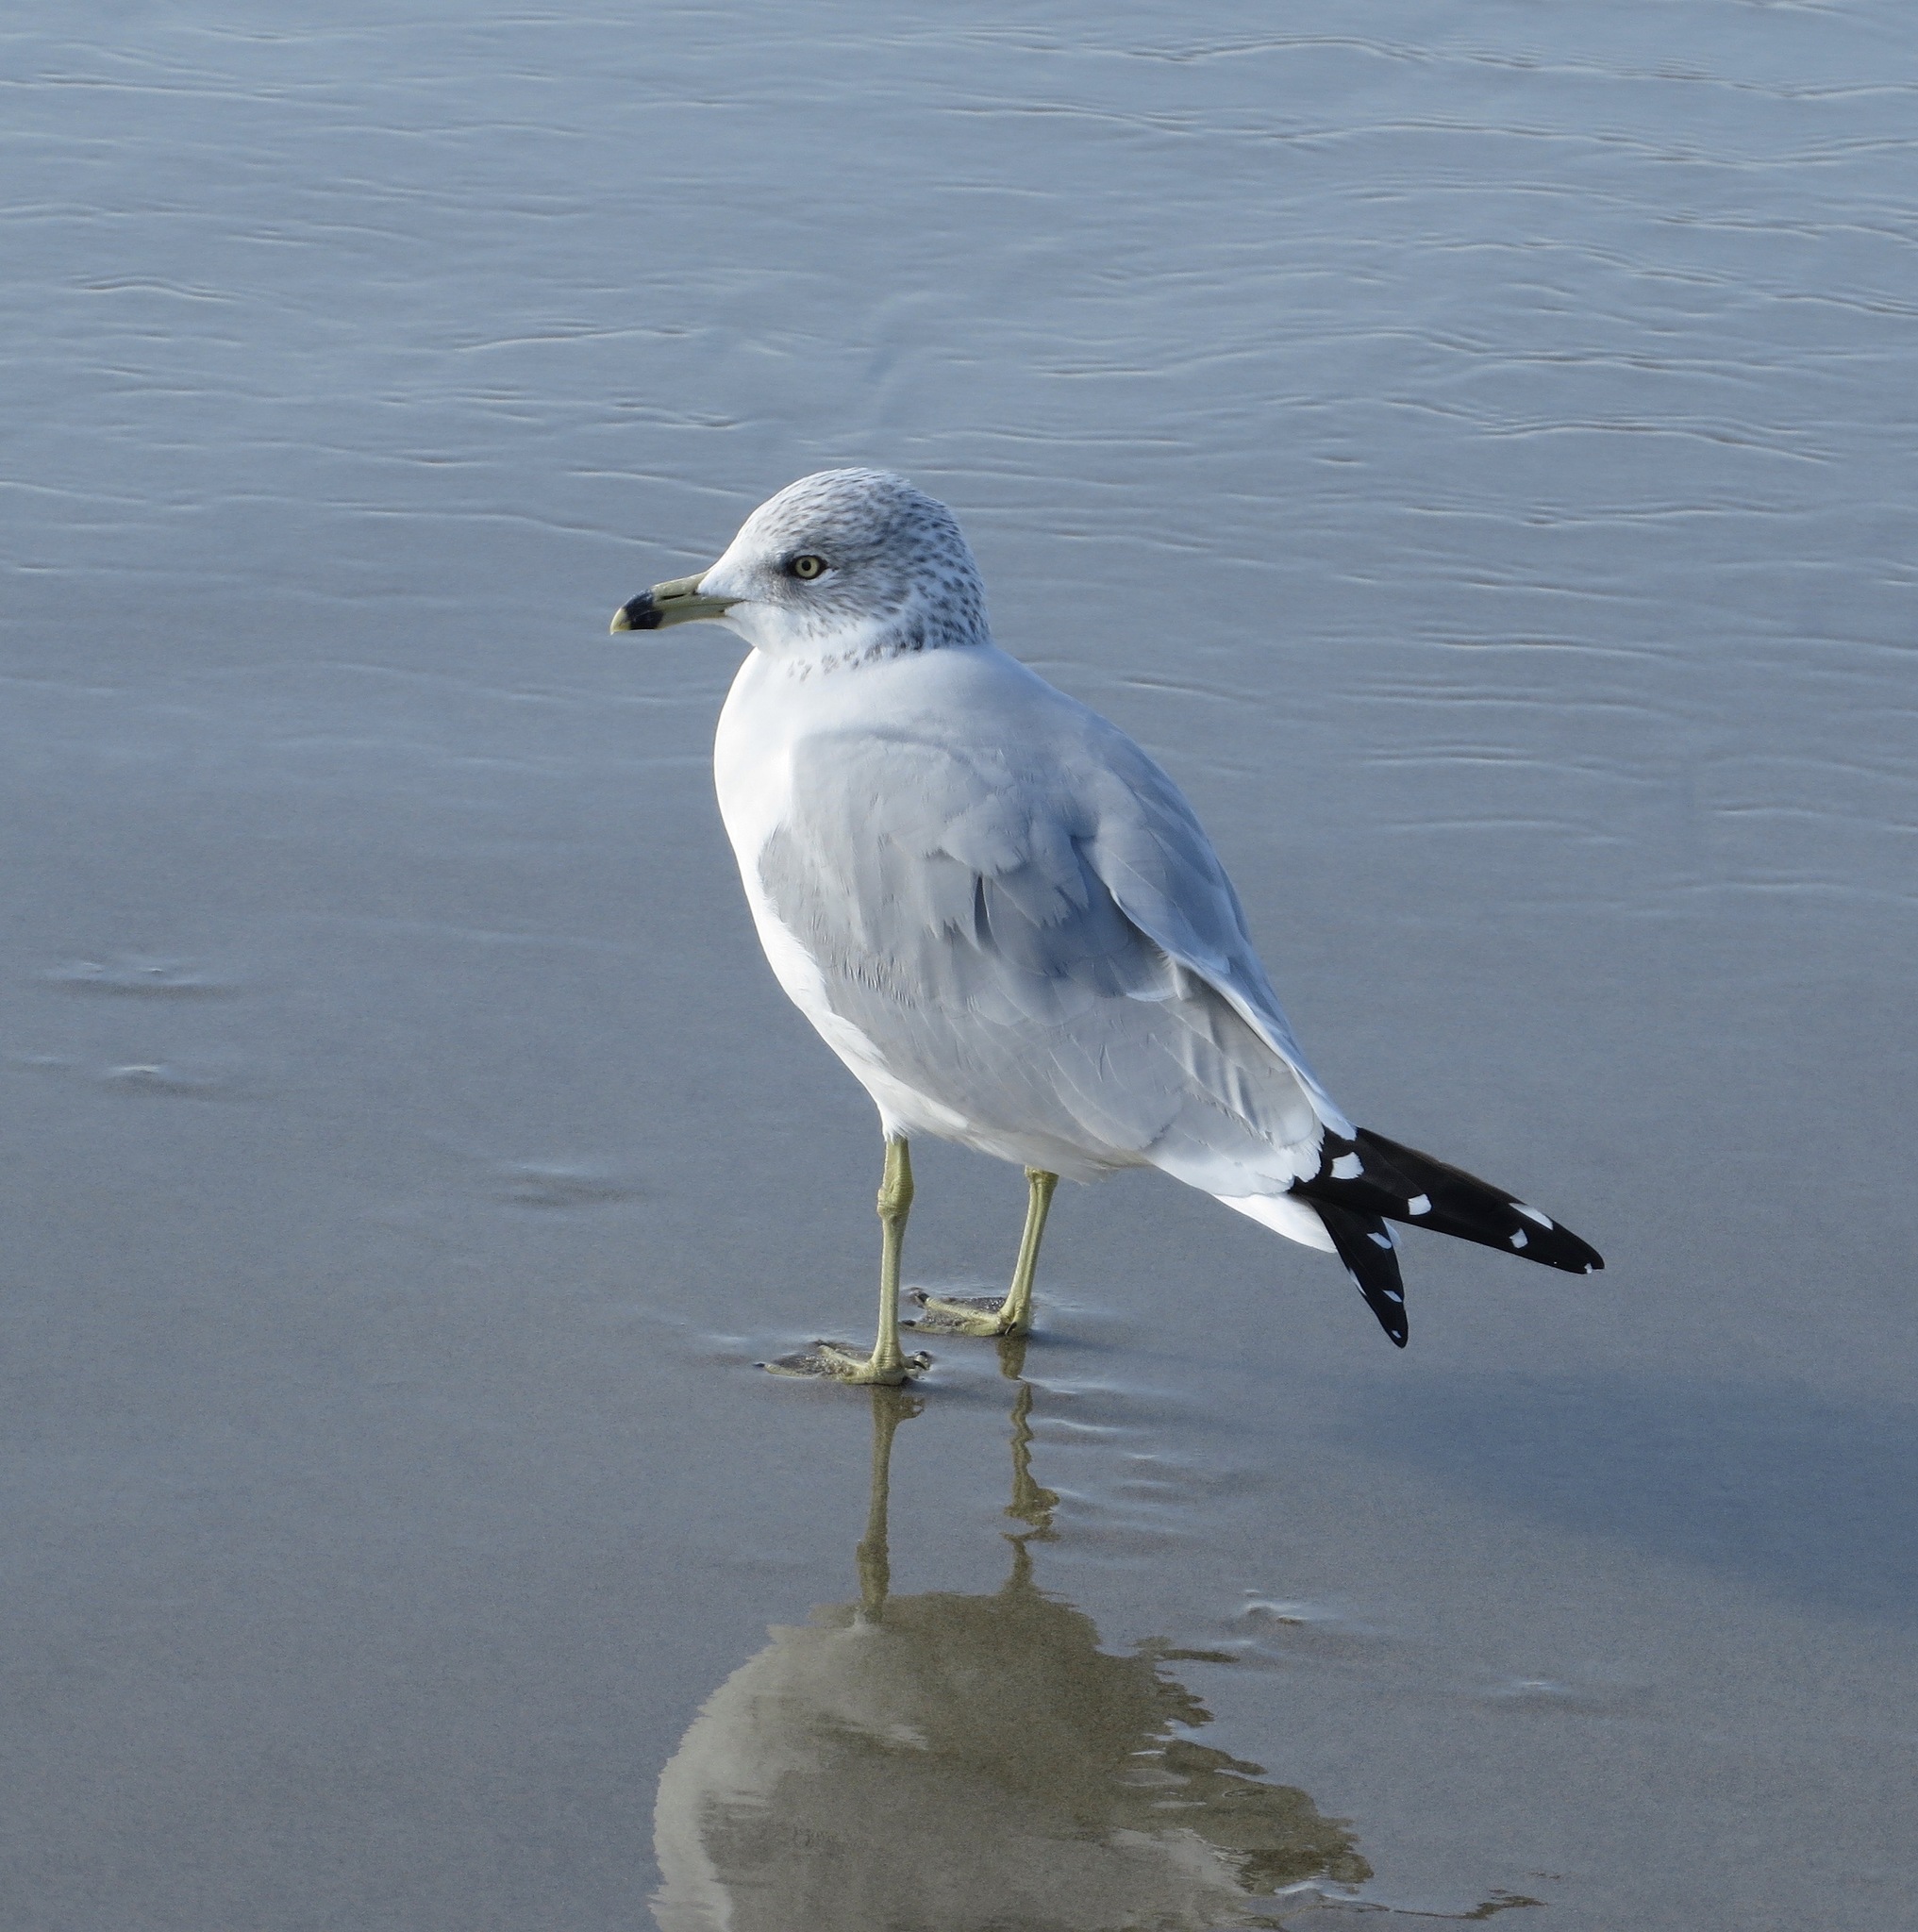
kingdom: Animalia
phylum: Chordata
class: Aves
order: Charadriiformes
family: Laridae
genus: Larus
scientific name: Larus delawarensis
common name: Ring-billed gull
